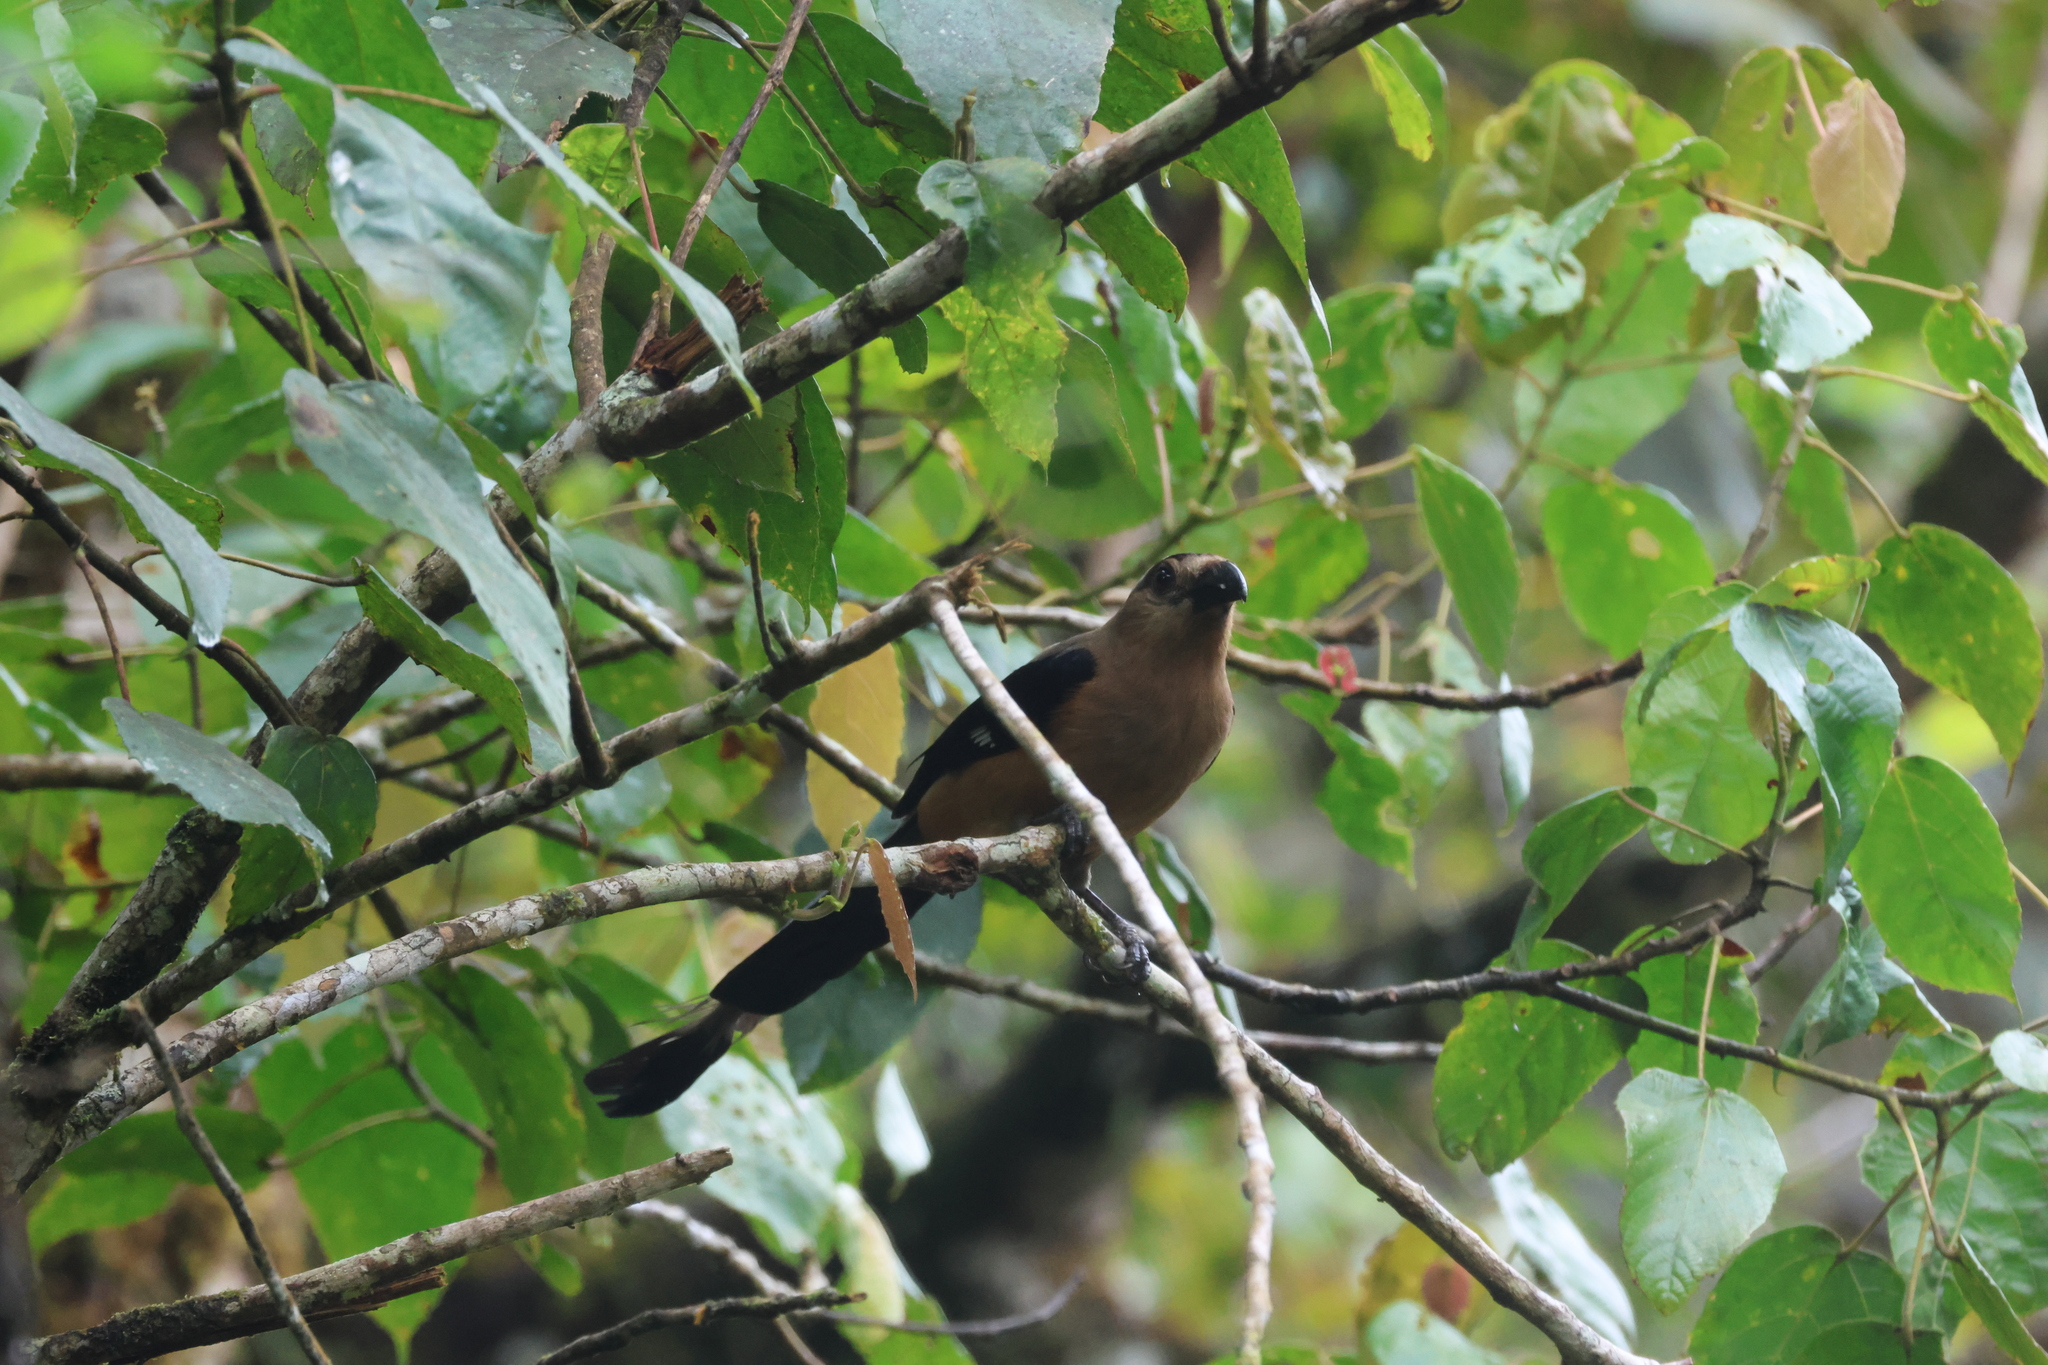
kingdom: Animalia
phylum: Chordata
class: Aves
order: Passeriformes
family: Corvidae
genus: Dendrocitta
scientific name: Dendrocitta cinerascens
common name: Bornean treepie
